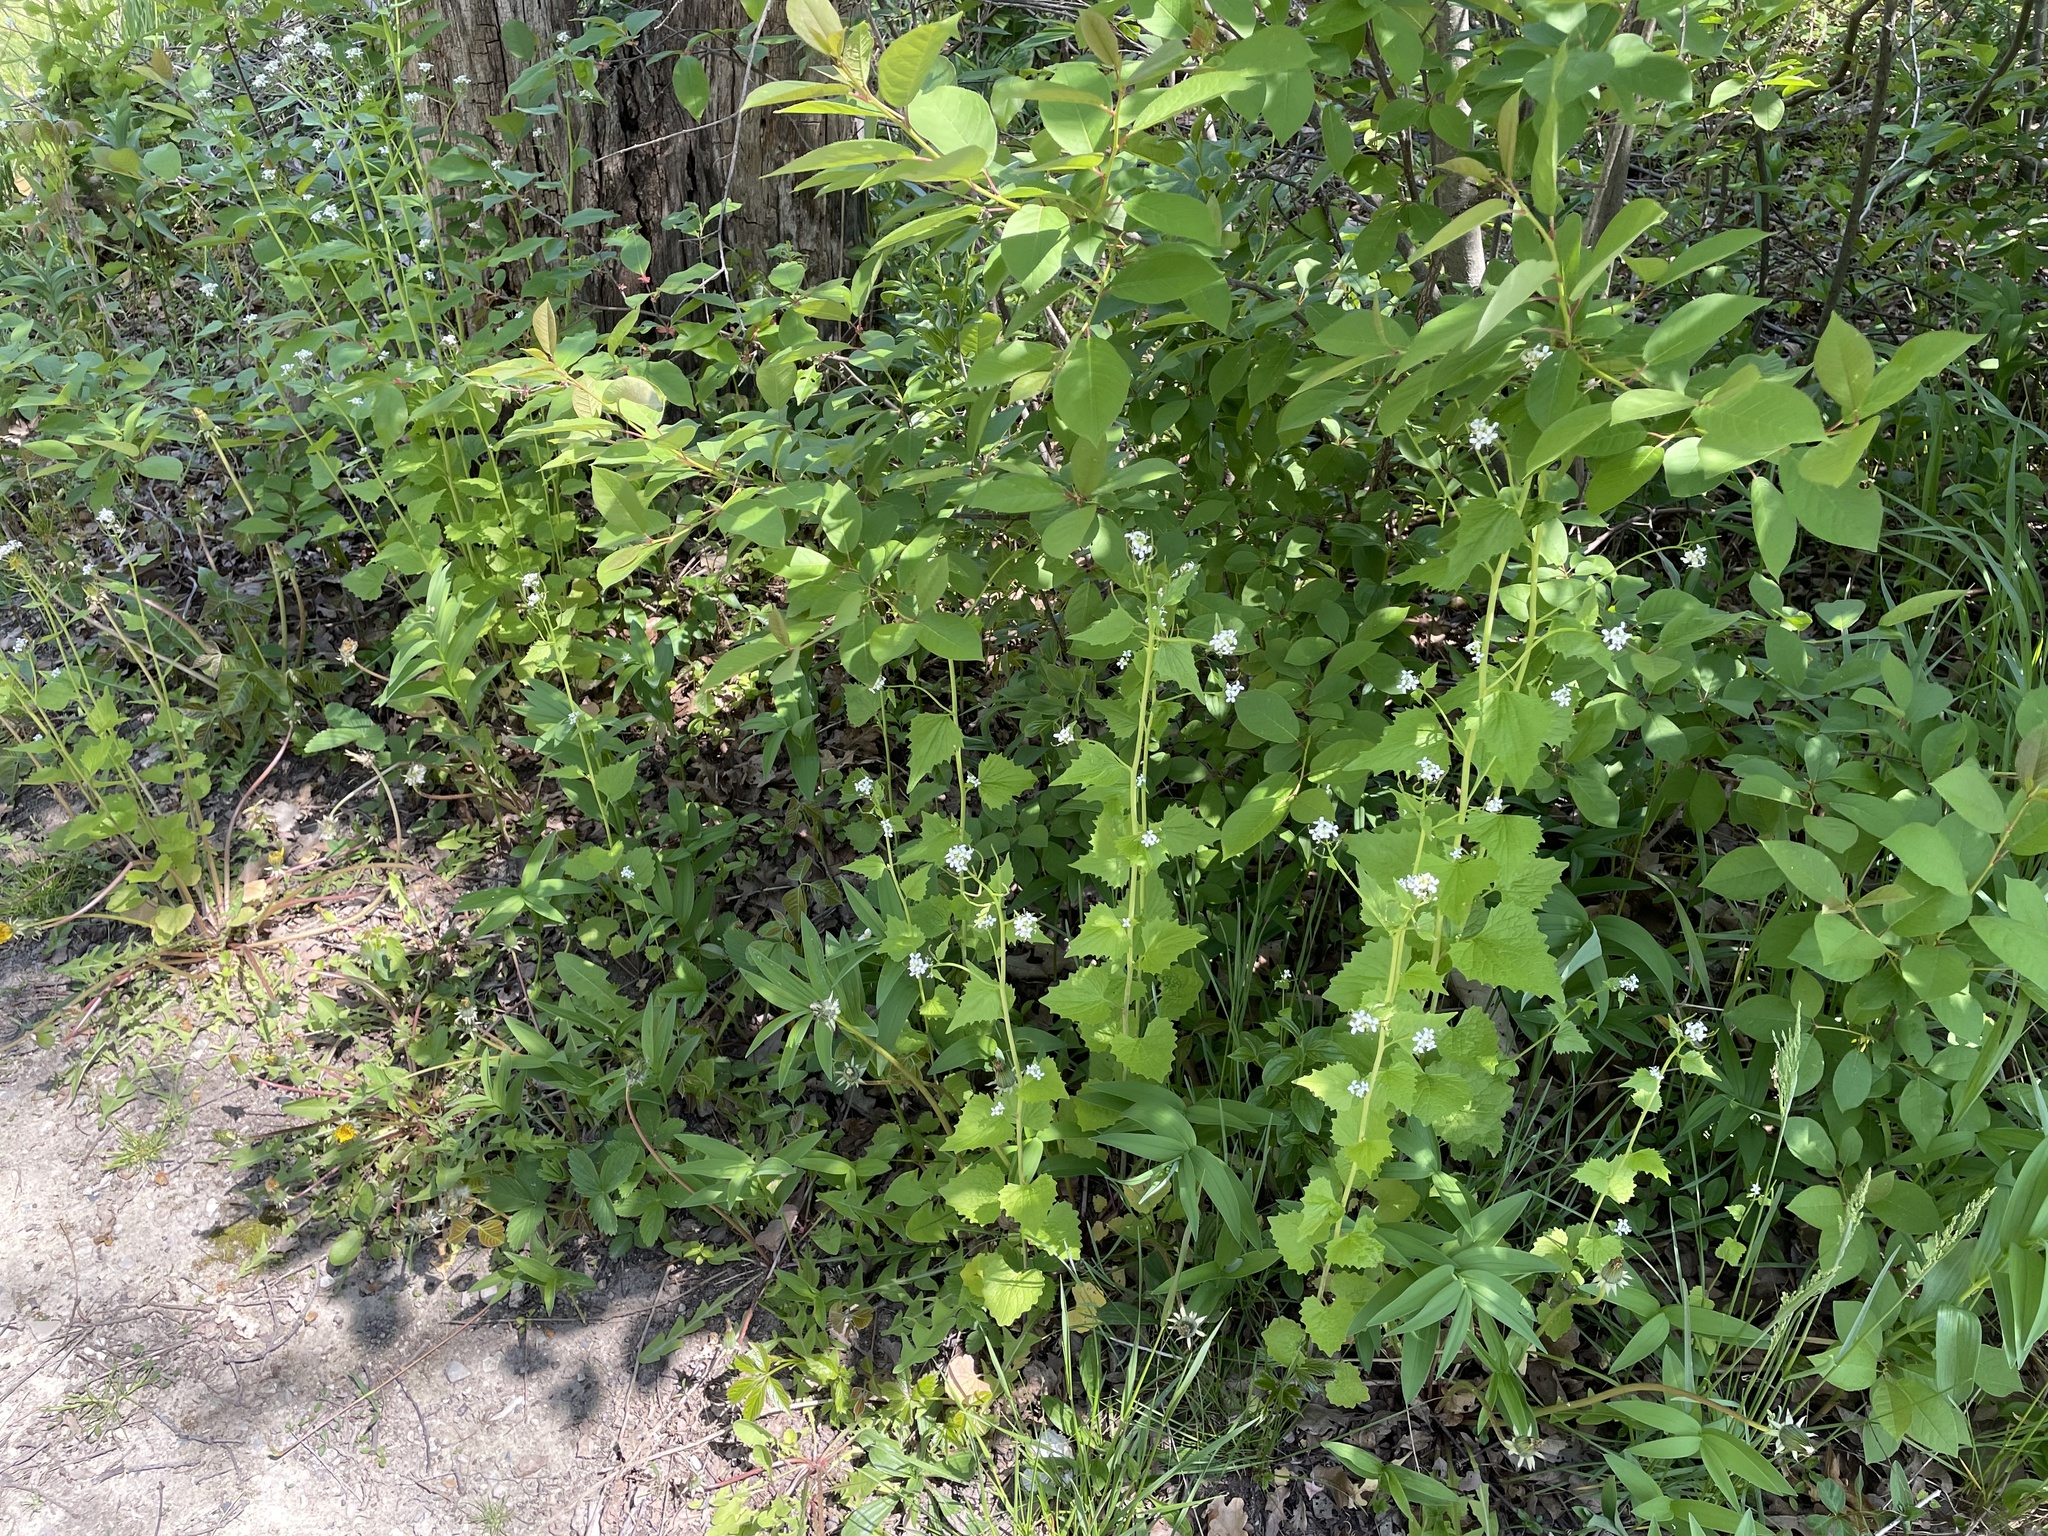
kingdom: Plantae
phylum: Tracheophyta
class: Magnoliopsida
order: Brassicales
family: Brassicaceae
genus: Alliaria
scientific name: Alliaria petiolata
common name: Garlic mustard
